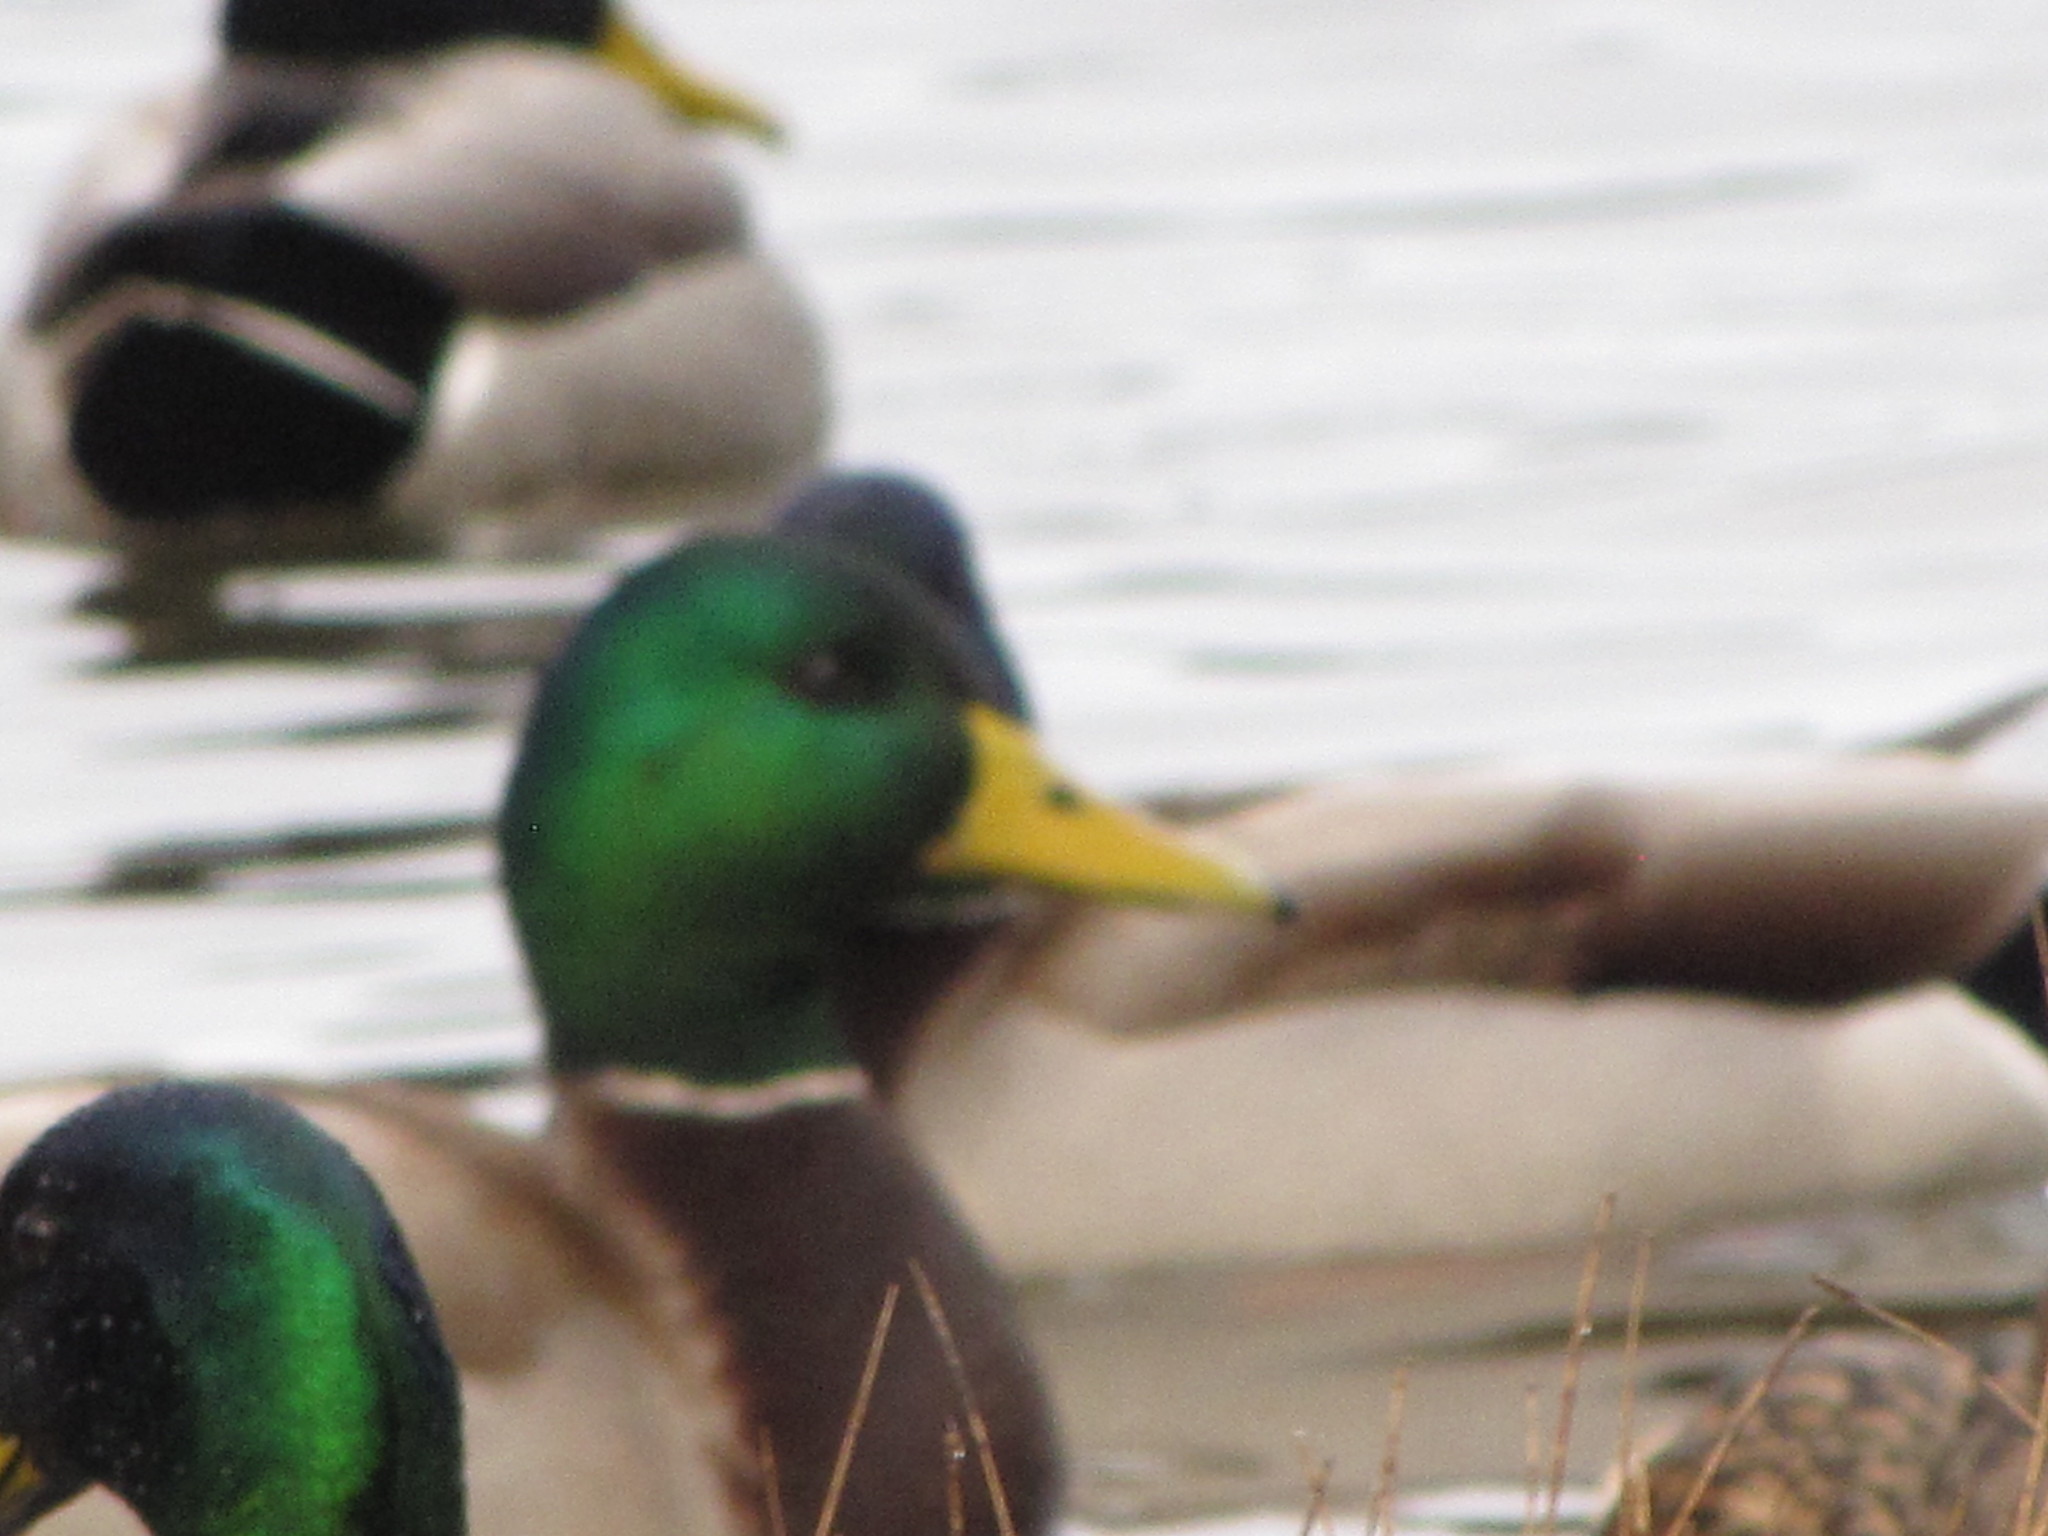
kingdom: Animalia
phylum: Chordata
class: Aves
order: Anseriformes
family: Anatidae
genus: Anas
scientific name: Anas platyrhynchos
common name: Mallard
